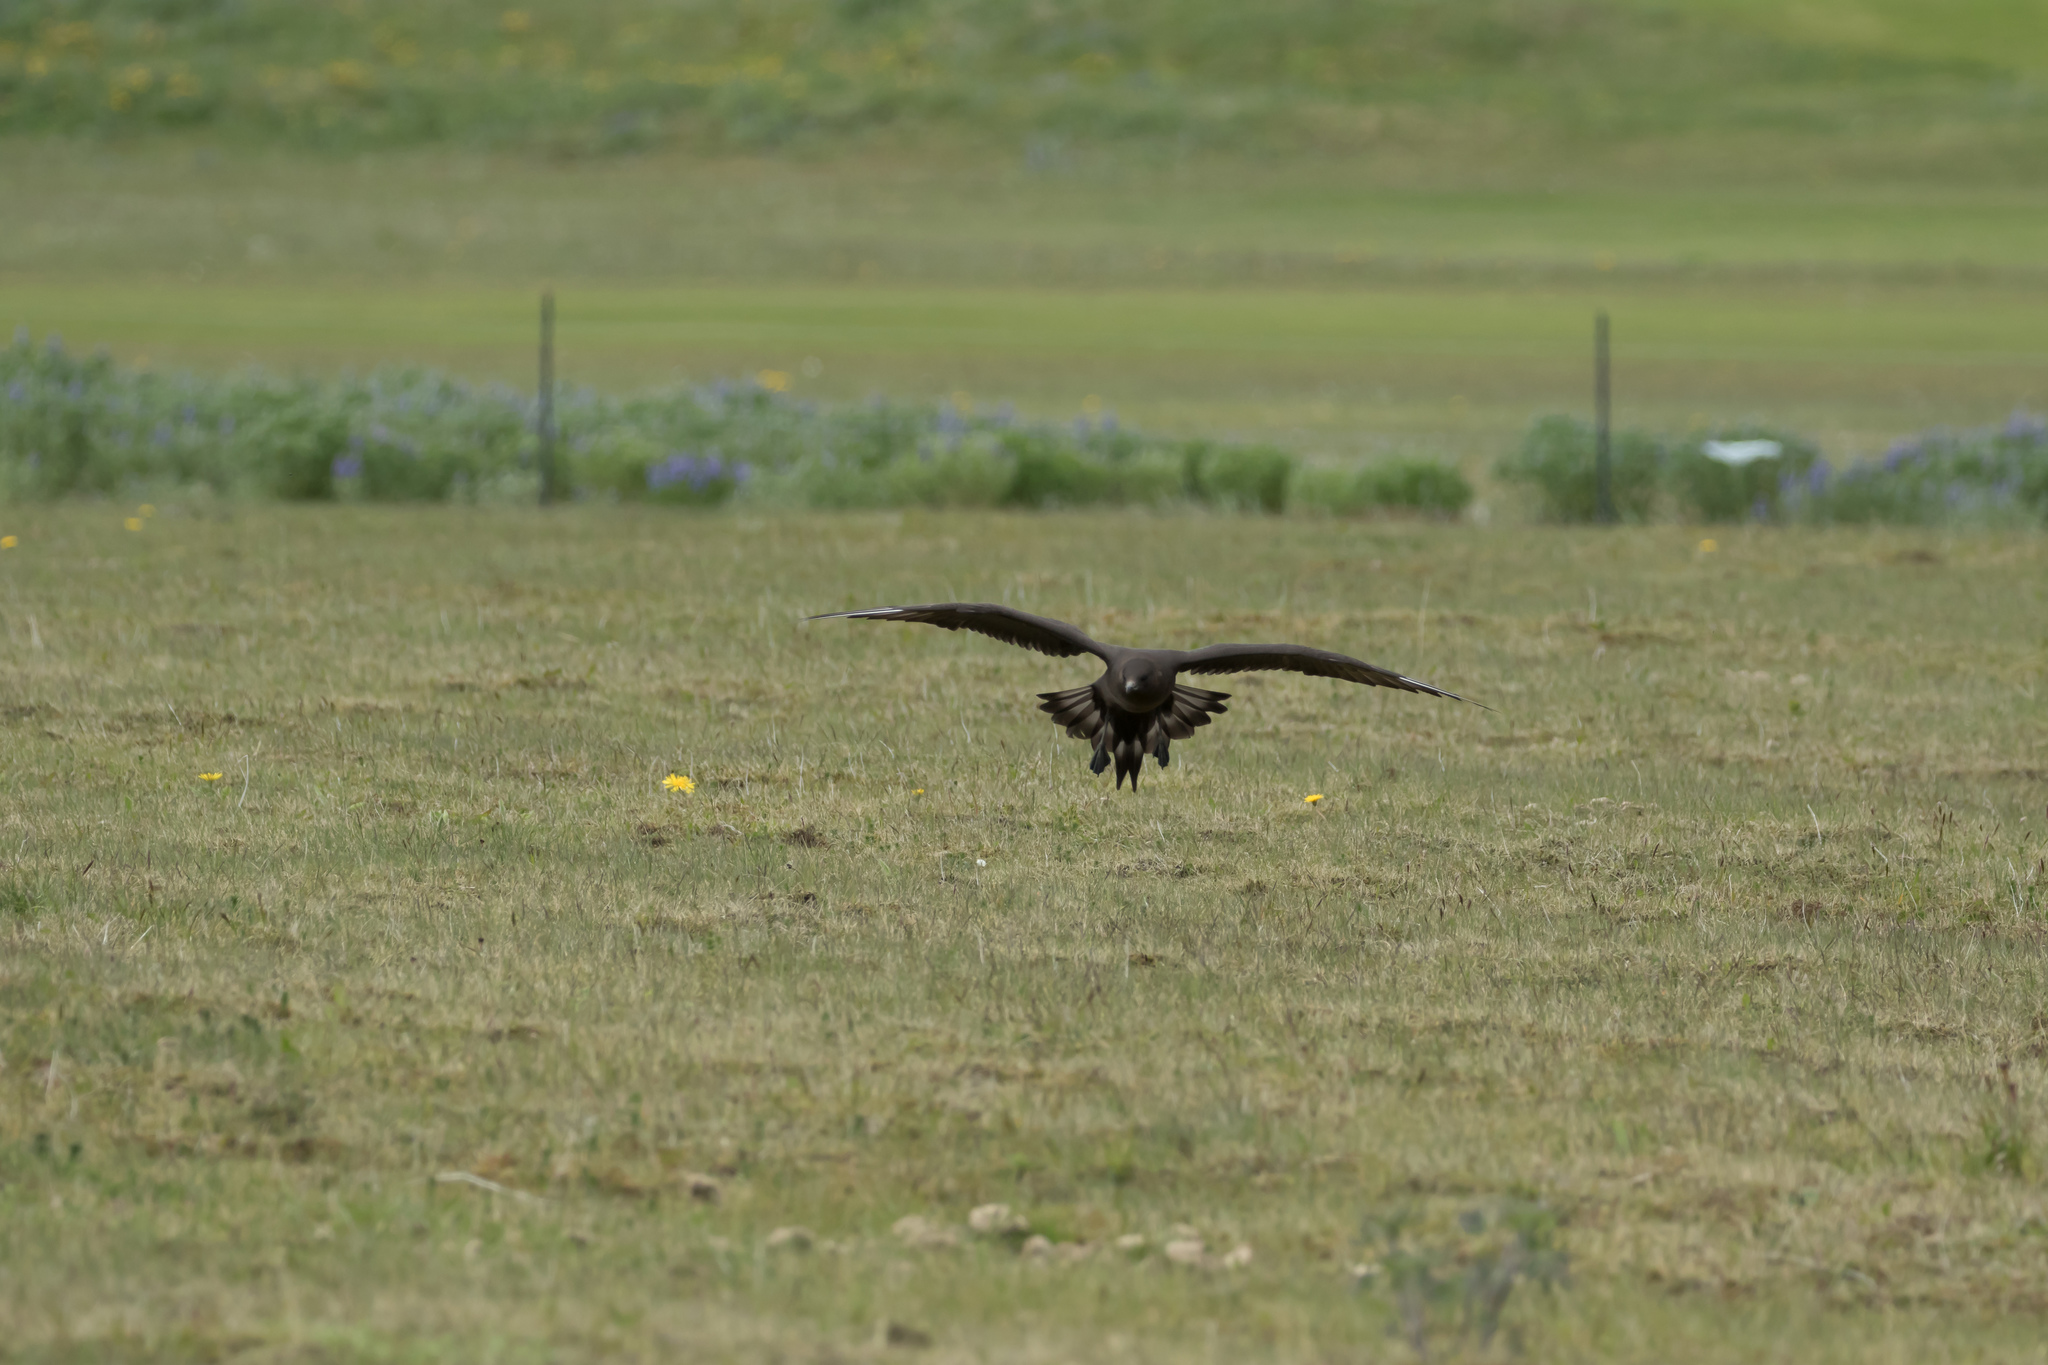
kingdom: Animalia
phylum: Chordata
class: Aves
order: Charadriiformes
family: Stercorariidae
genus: Stercorarius
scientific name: Stercorarius parasiticus
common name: Parasitic jaeger
